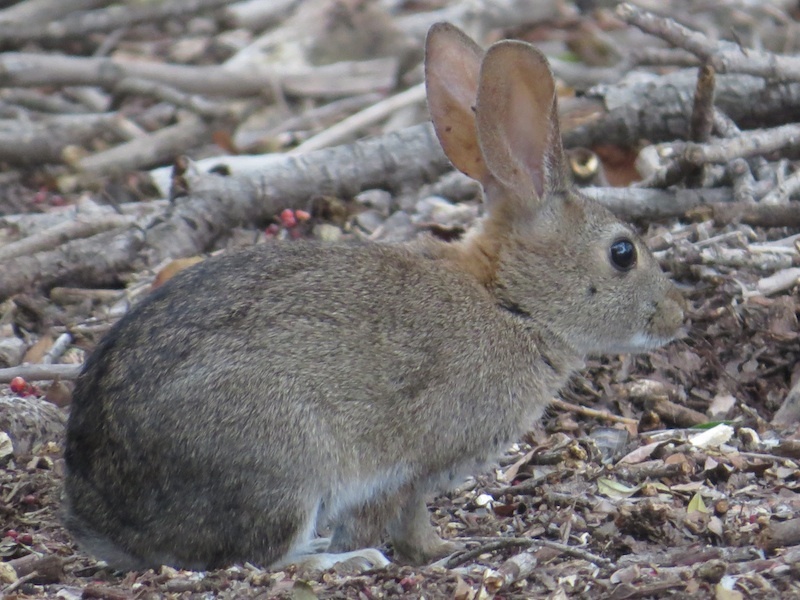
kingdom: Animalia
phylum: Chordata
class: Mammalia
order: Lagomorpha
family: Leporidae
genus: Sylvilagus
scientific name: Sylvilagus audubonii
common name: Desert cottontail
